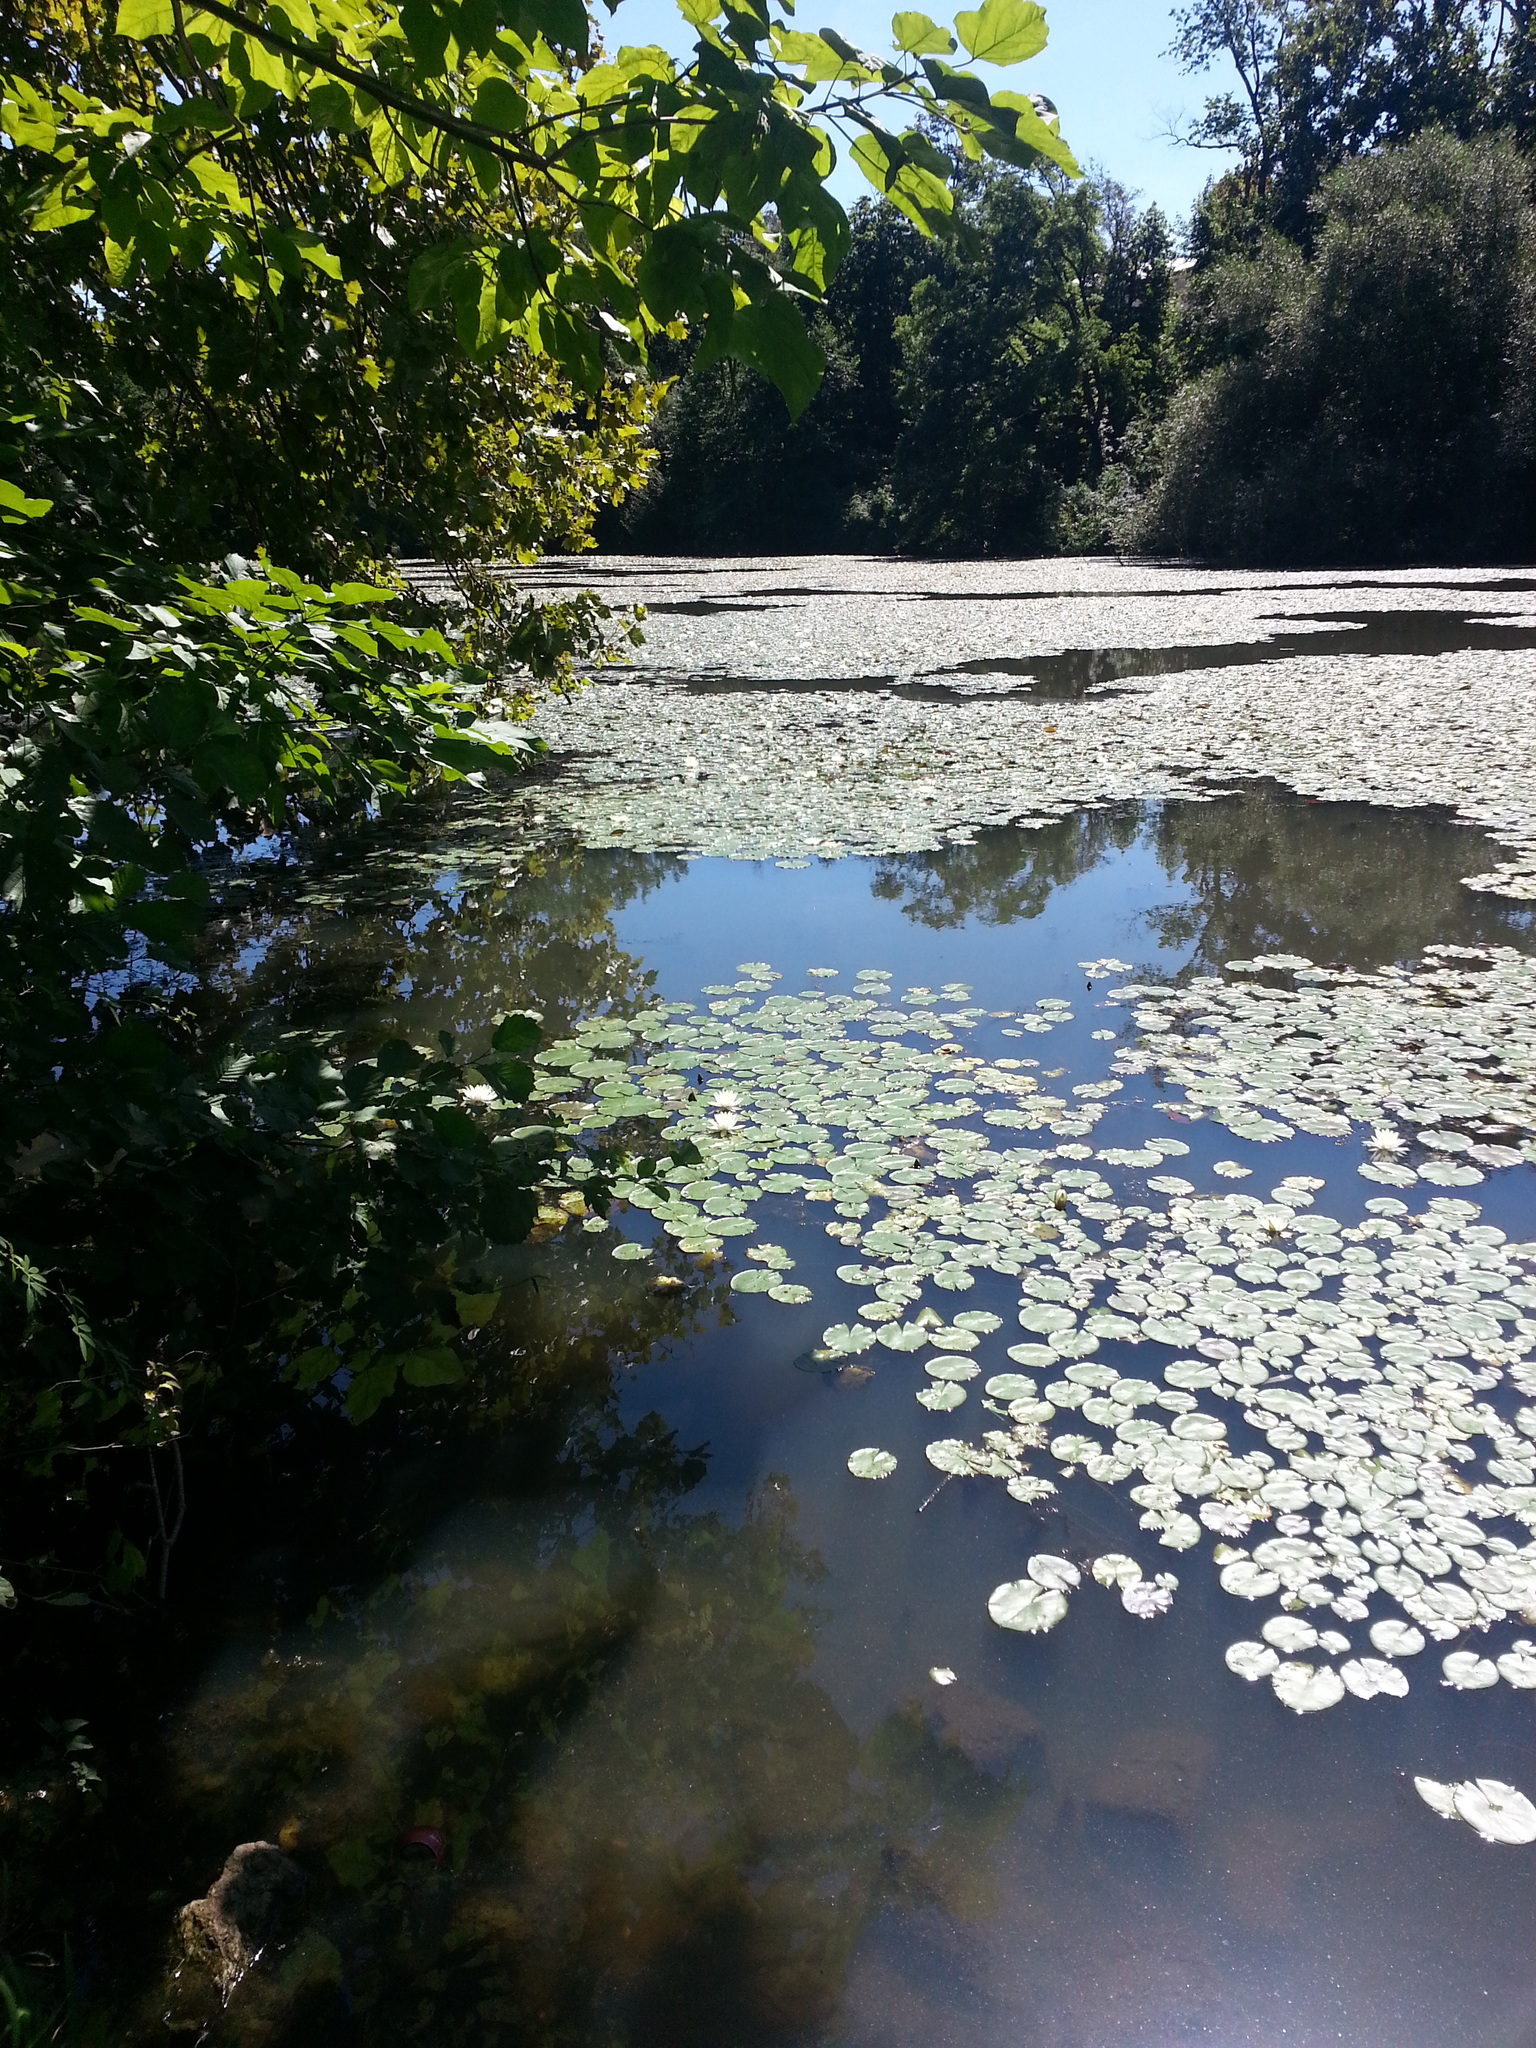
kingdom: Plantae
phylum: Tracheophyta
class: Magnoliopsida
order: Nymphaeales
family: Nymphaeaceae
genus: Nymphaea
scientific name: Nymphaea odorata
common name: Fragrant water-lily
